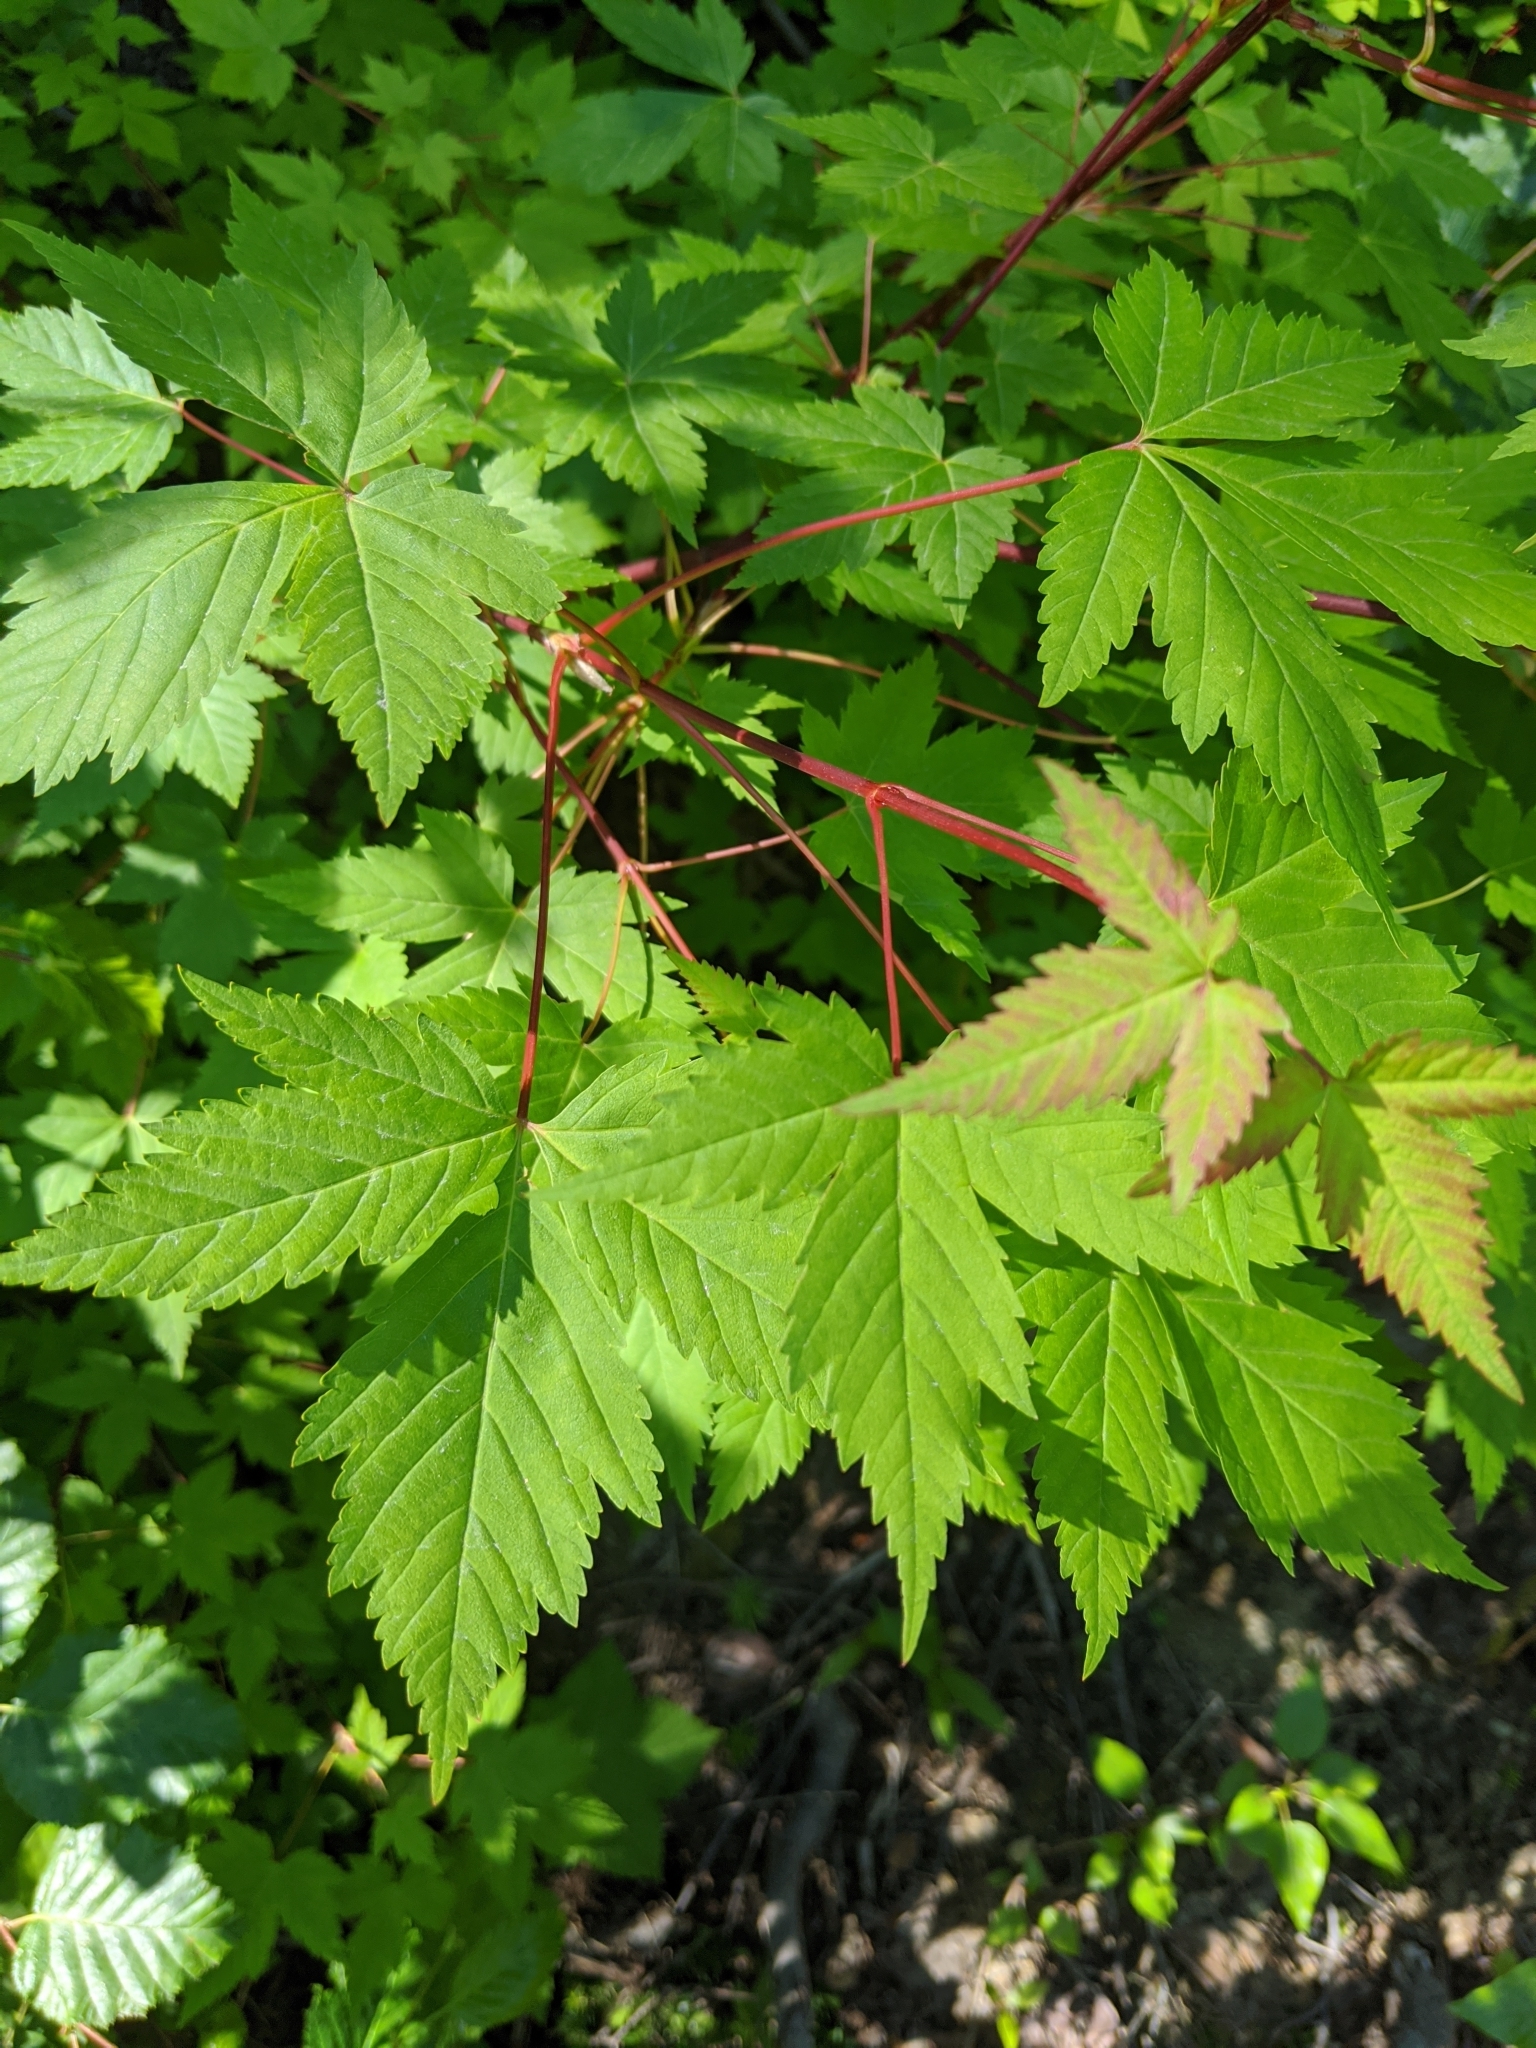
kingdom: Plantae
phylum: Tracheophyta
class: Magnoliopsida
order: Sapindales
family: Sapindaceae
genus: Acer
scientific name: Acer glabrum
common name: Rocky mountain maple
